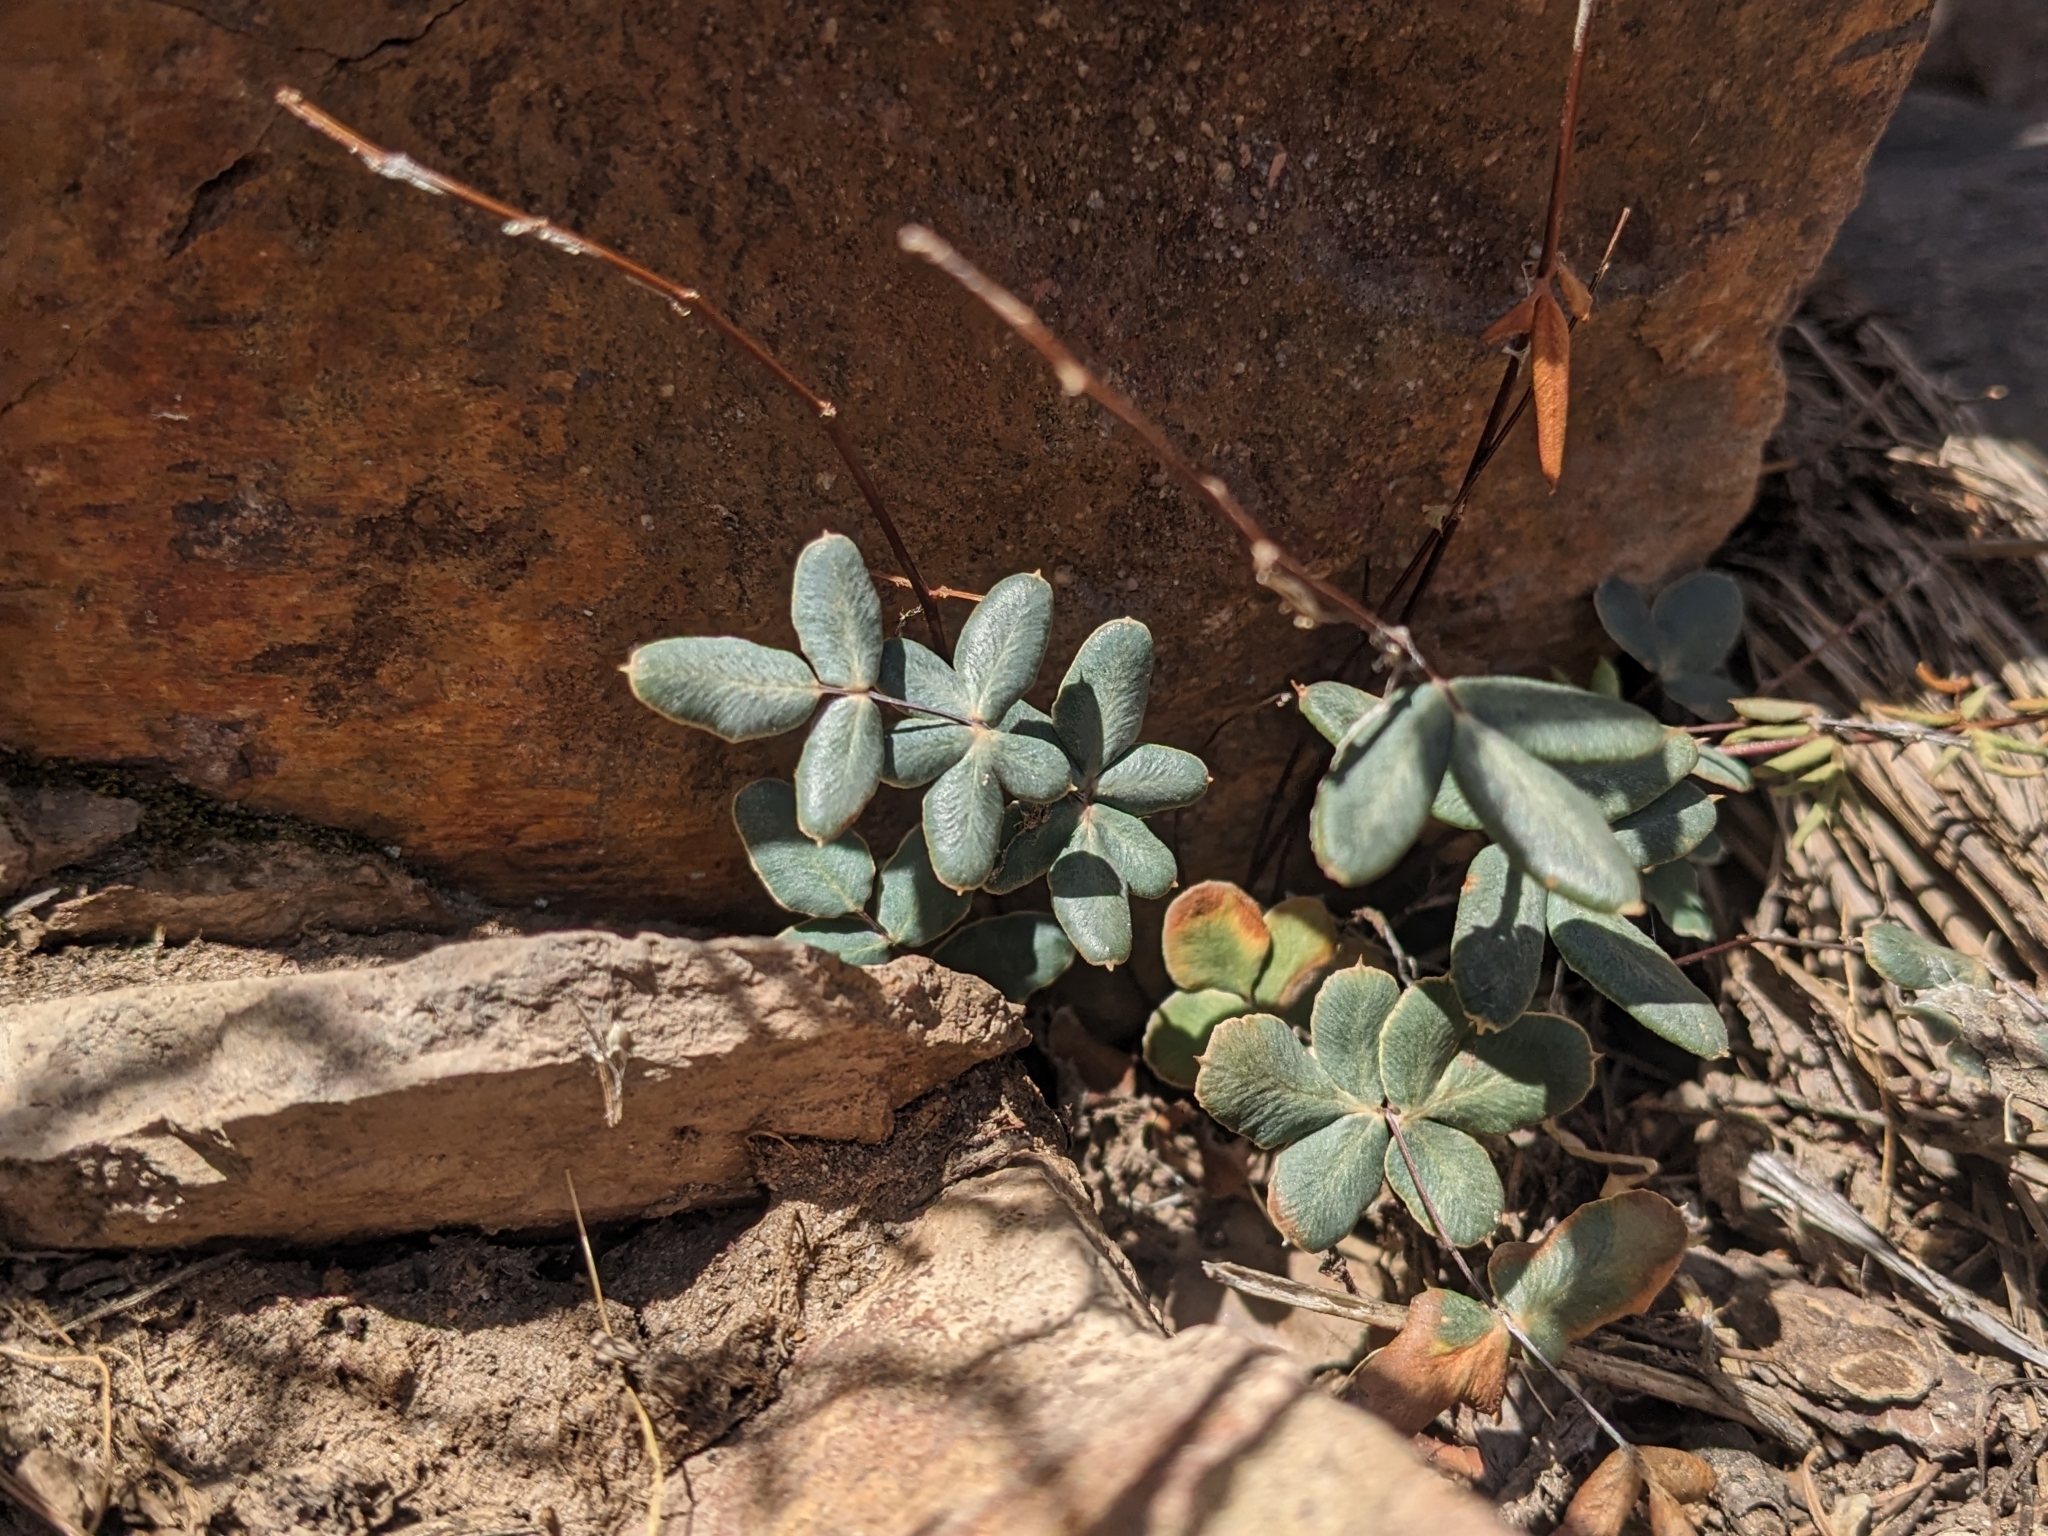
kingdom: Plantae
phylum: Tracheophyta
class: Polypodiopsida
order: Polypodiales
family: Pteridaceae
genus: Pellaea
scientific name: Pellaea wrightiana
